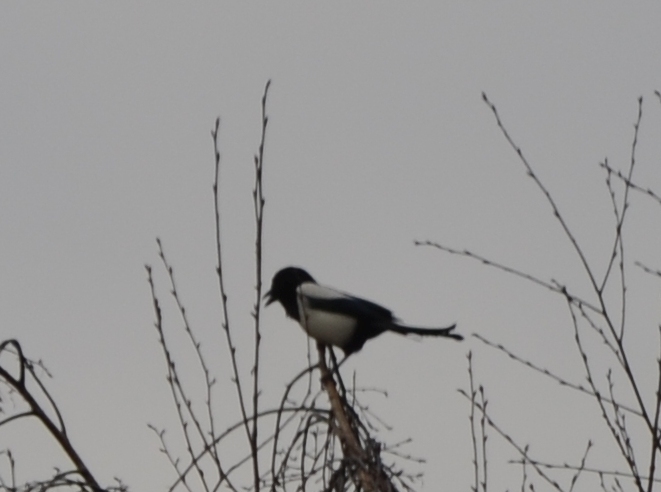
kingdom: Animalia
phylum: Chordata
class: Aves
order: Passeriformes
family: Corvidae
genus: Pica
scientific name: Pica pica
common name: Eurasian magpie
